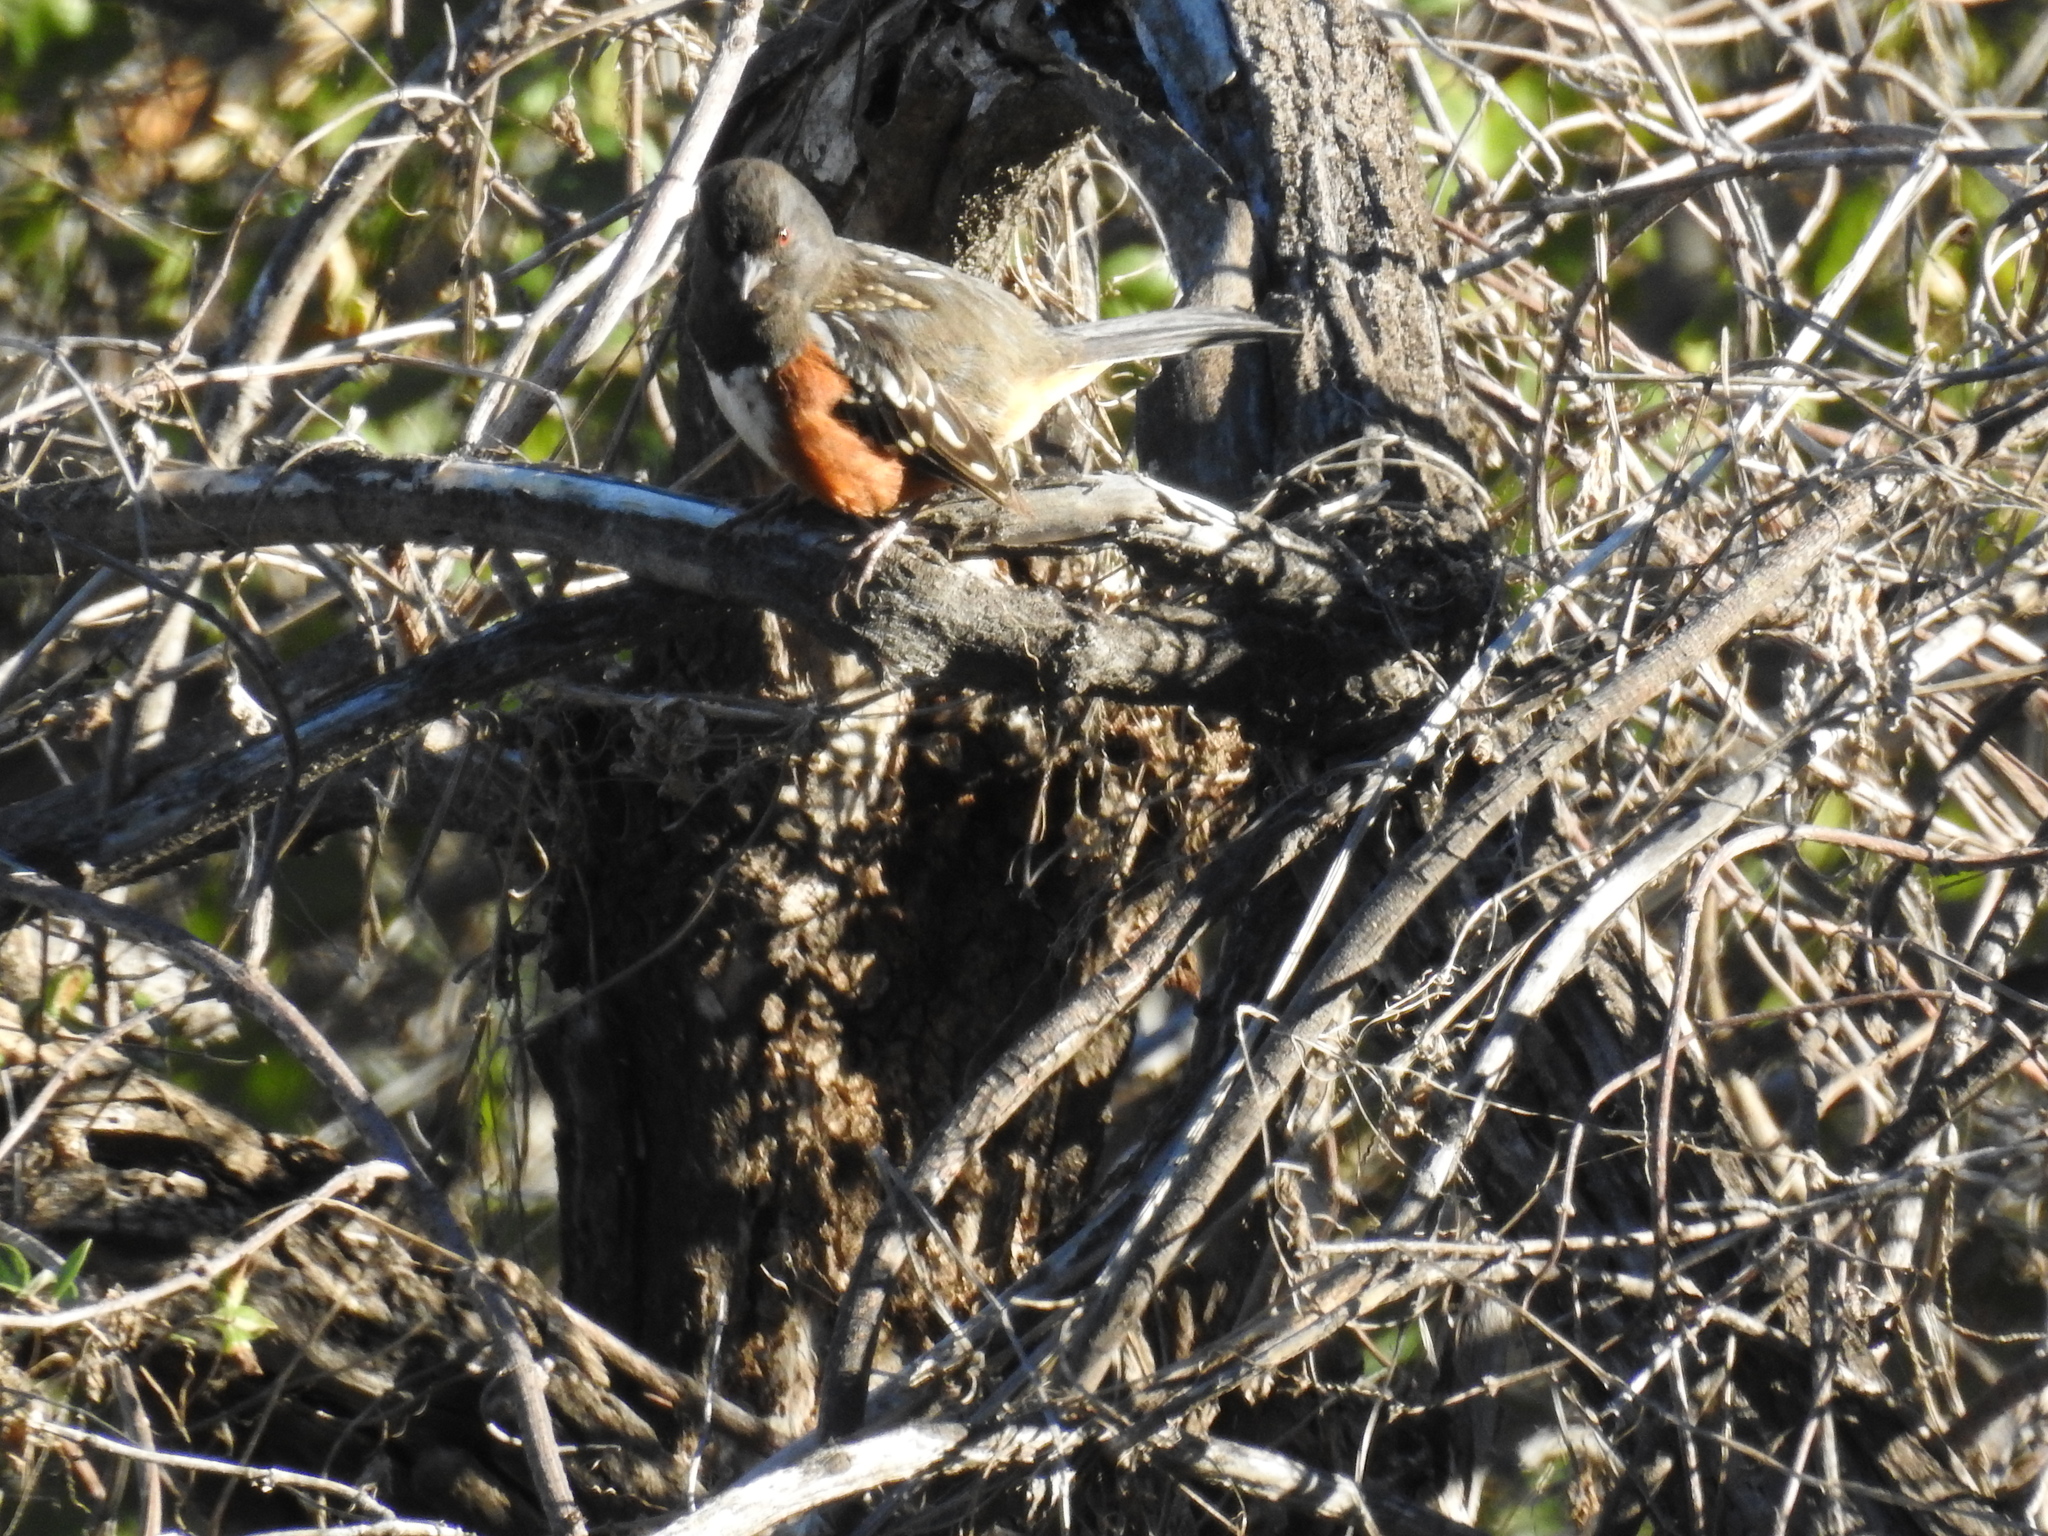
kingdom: Animalia
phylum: Chordata
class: Aves
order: Passeriformes
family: Passerellidae
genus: Pipilo
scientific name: Pipilo maculatus
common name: Spotted towhee
